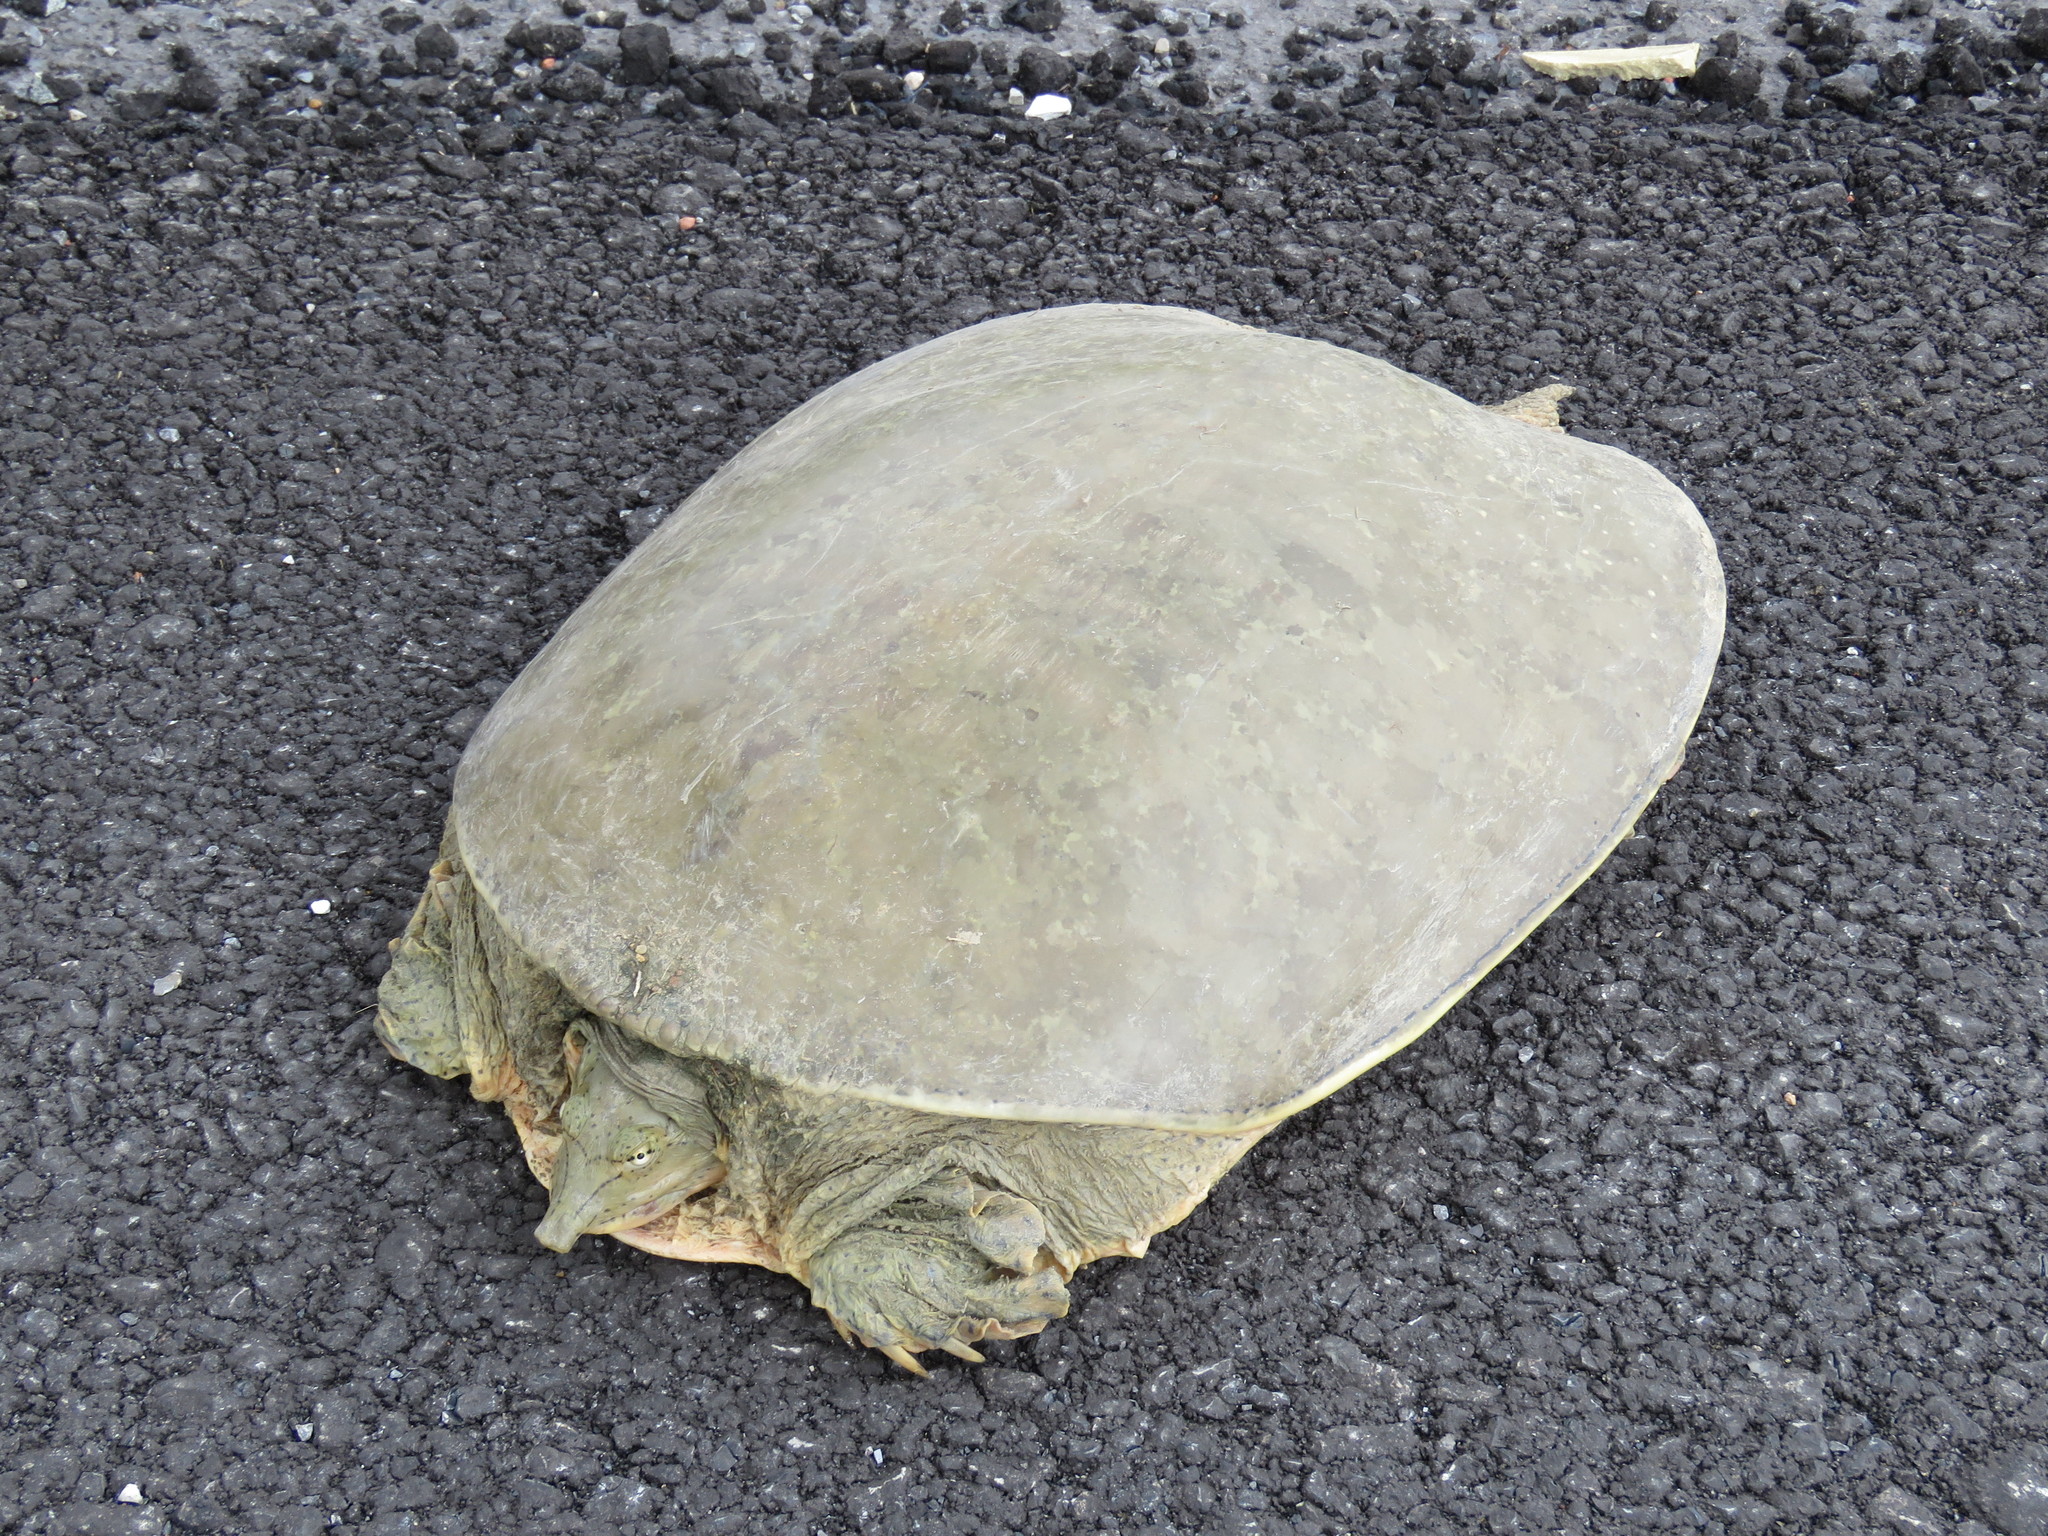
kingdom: Animalia
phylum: Chordata
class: Testudines
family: Trionychidae
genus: Apalone
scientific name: Apalone spinifera
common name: Spiny softshell turtle
